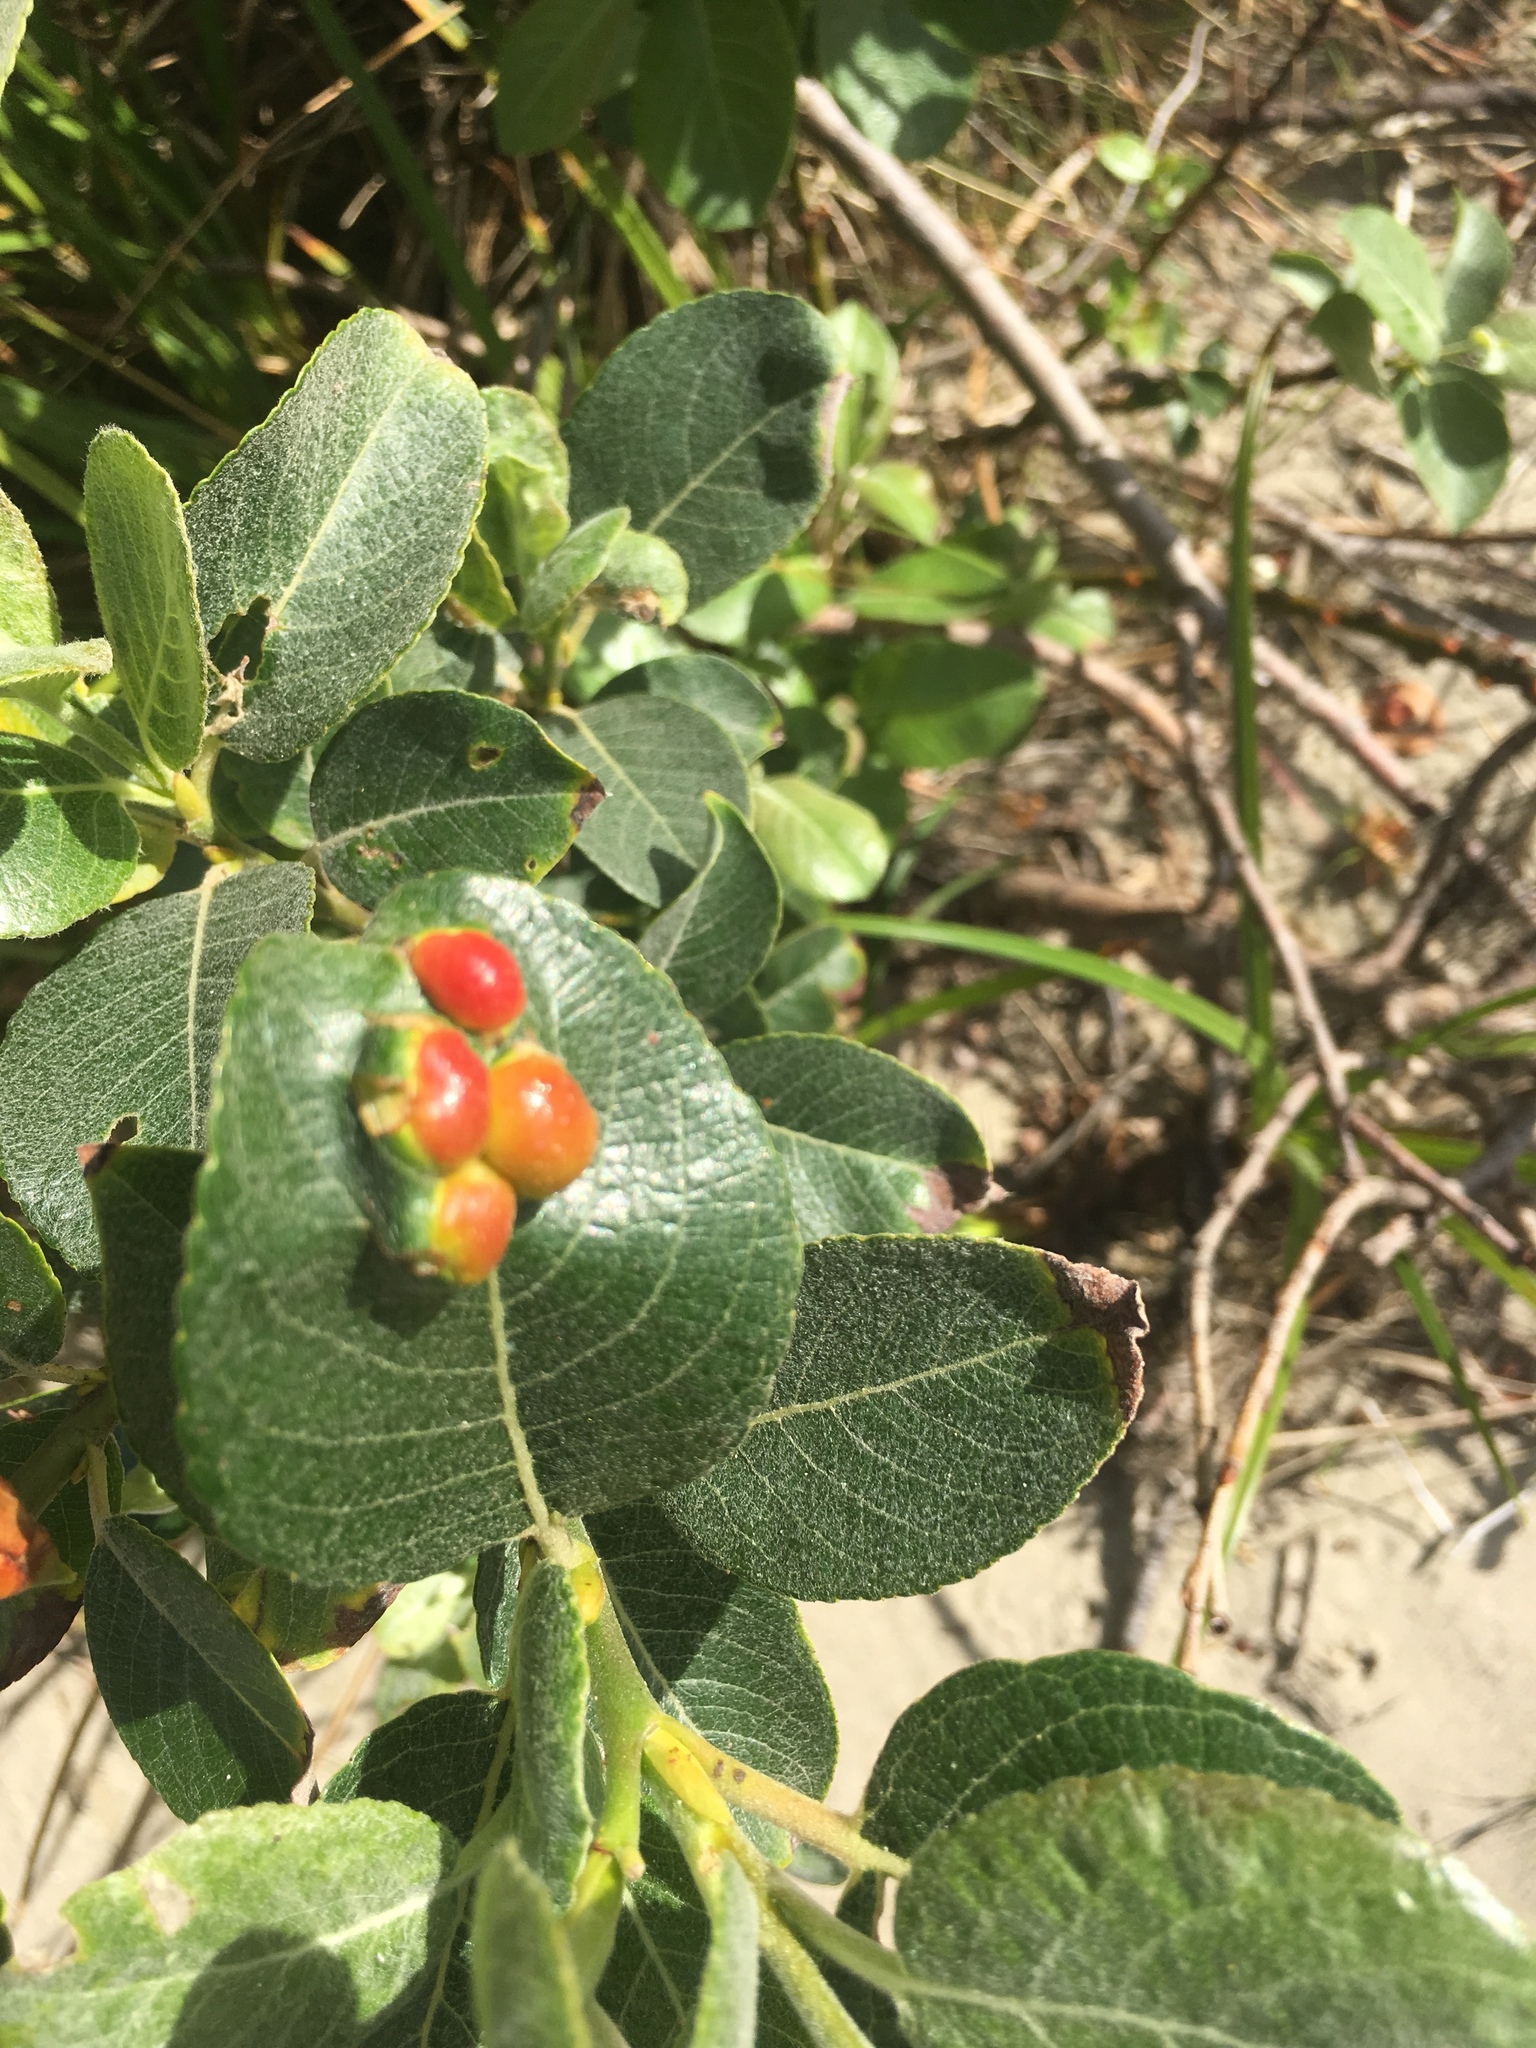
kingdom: Animalia
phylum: Arthropoda
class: Insecta
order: Hymenoptera
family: Tenthredinidae
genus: Euura
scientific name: Euura
